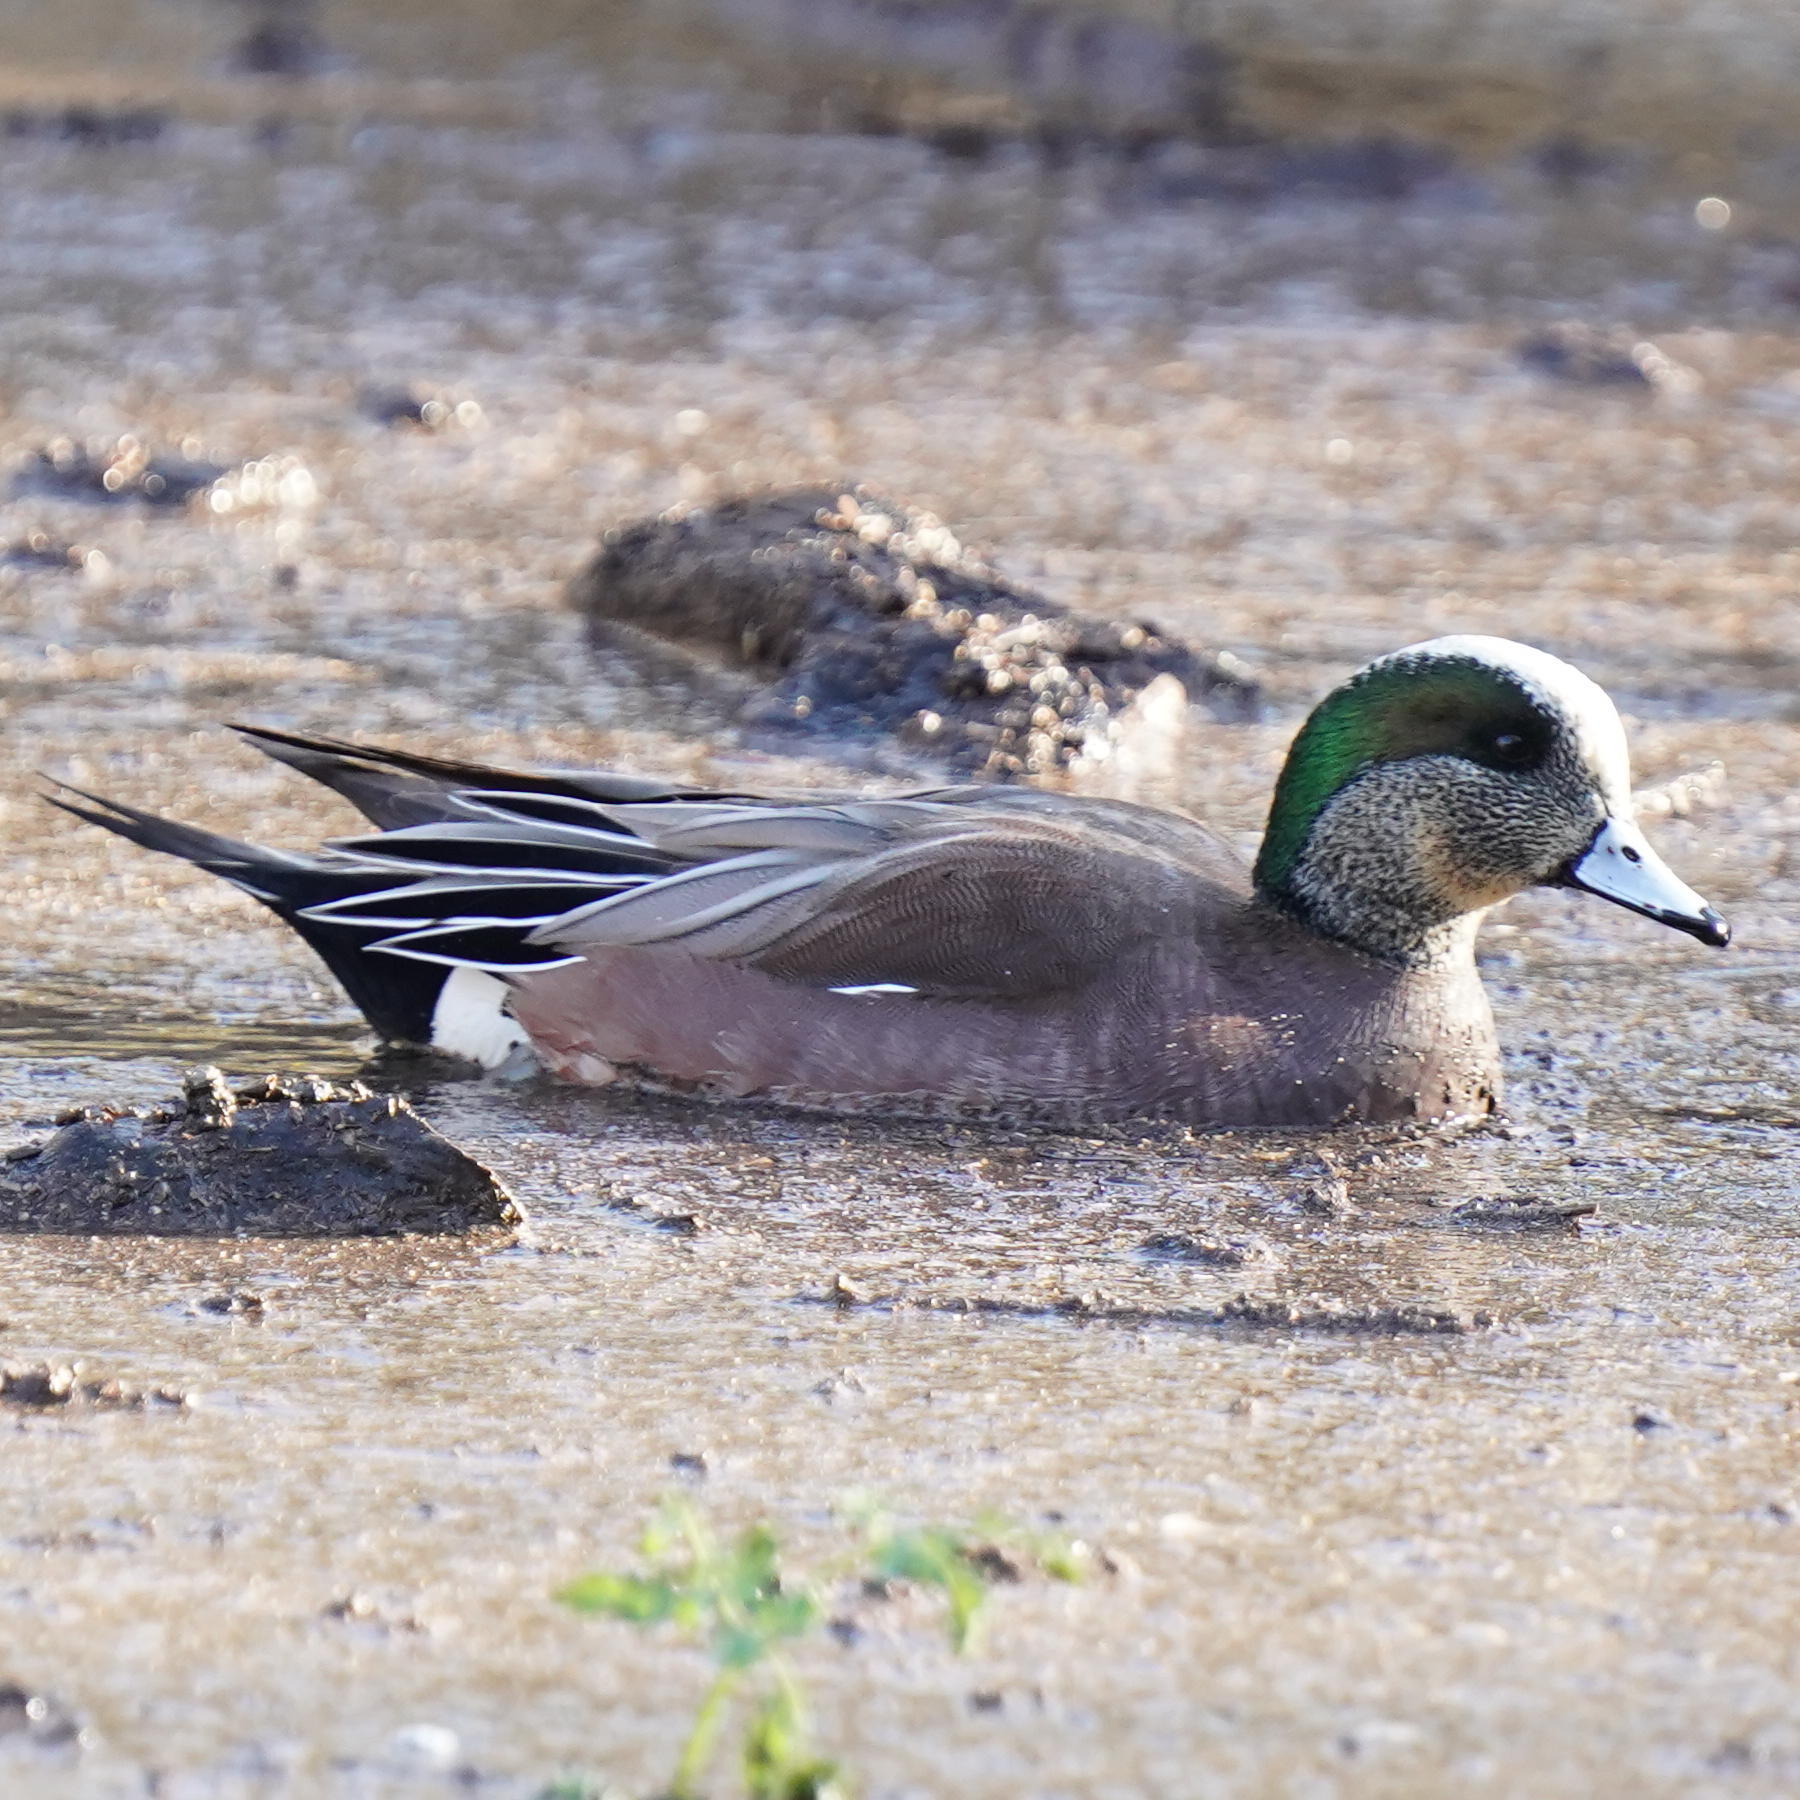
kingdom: Animalia
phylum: Chordata
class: Aves
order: Anseriformes
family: Anatidae
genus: Mareca
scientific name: Mareca americana
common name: American wigeon
